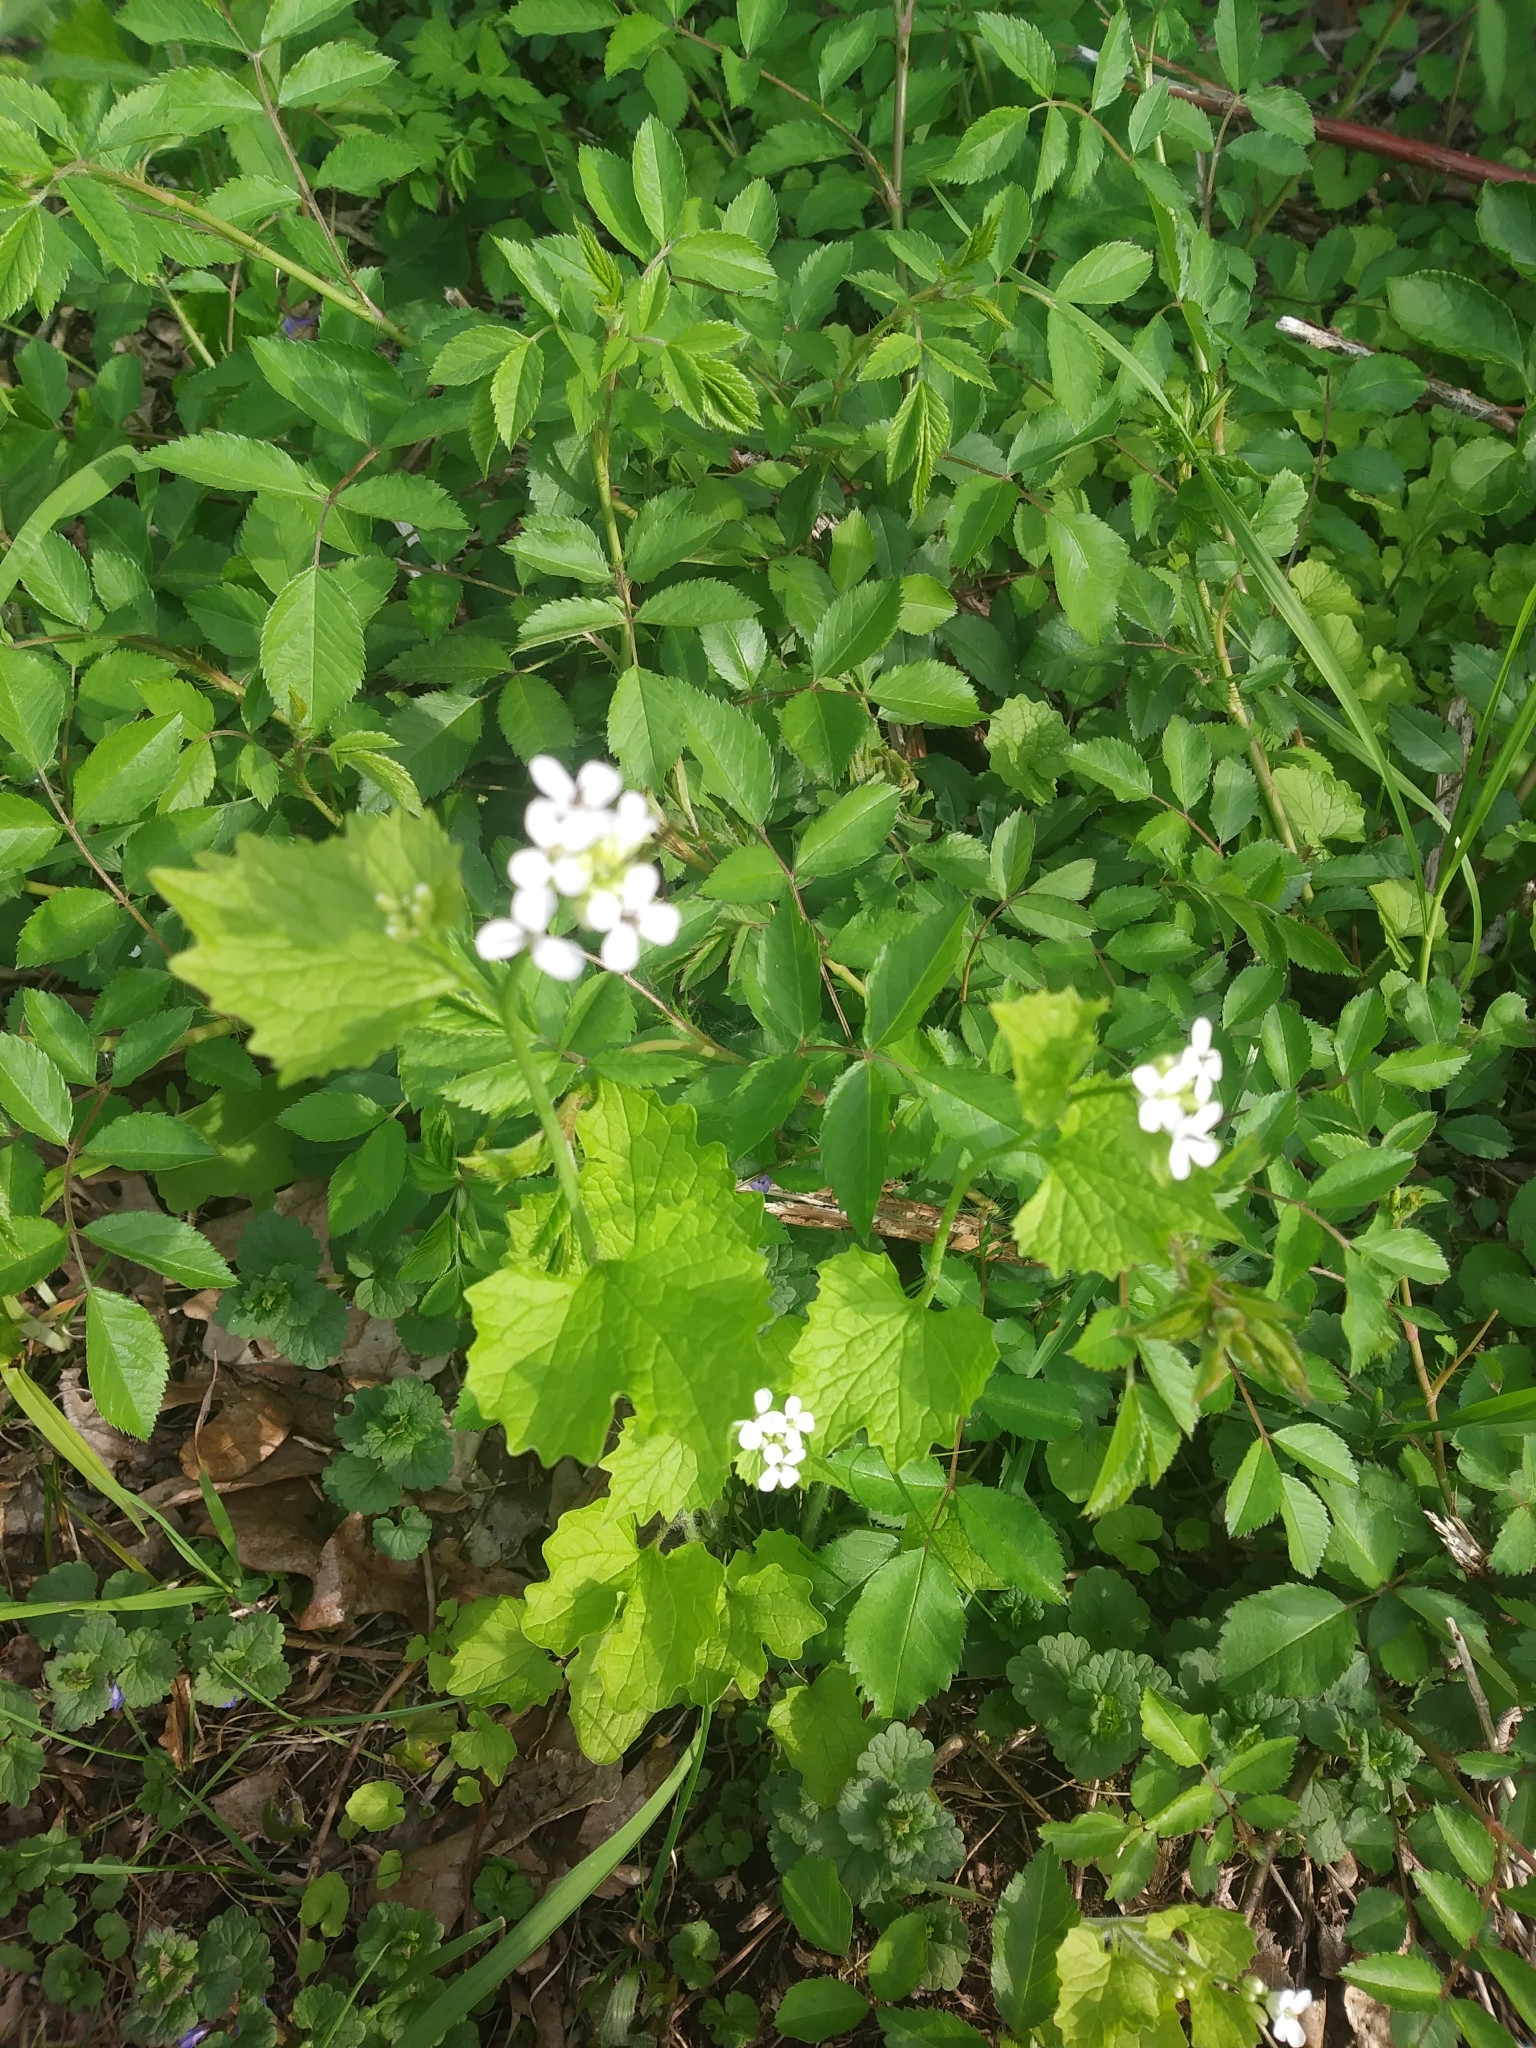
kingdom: Plantae
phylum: Tracheophyta
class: Magnoliopsida
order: Brassicales
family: Brassicaceae
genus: Alliaria
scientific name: Alliaria petiolata
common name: Garlic mustard
